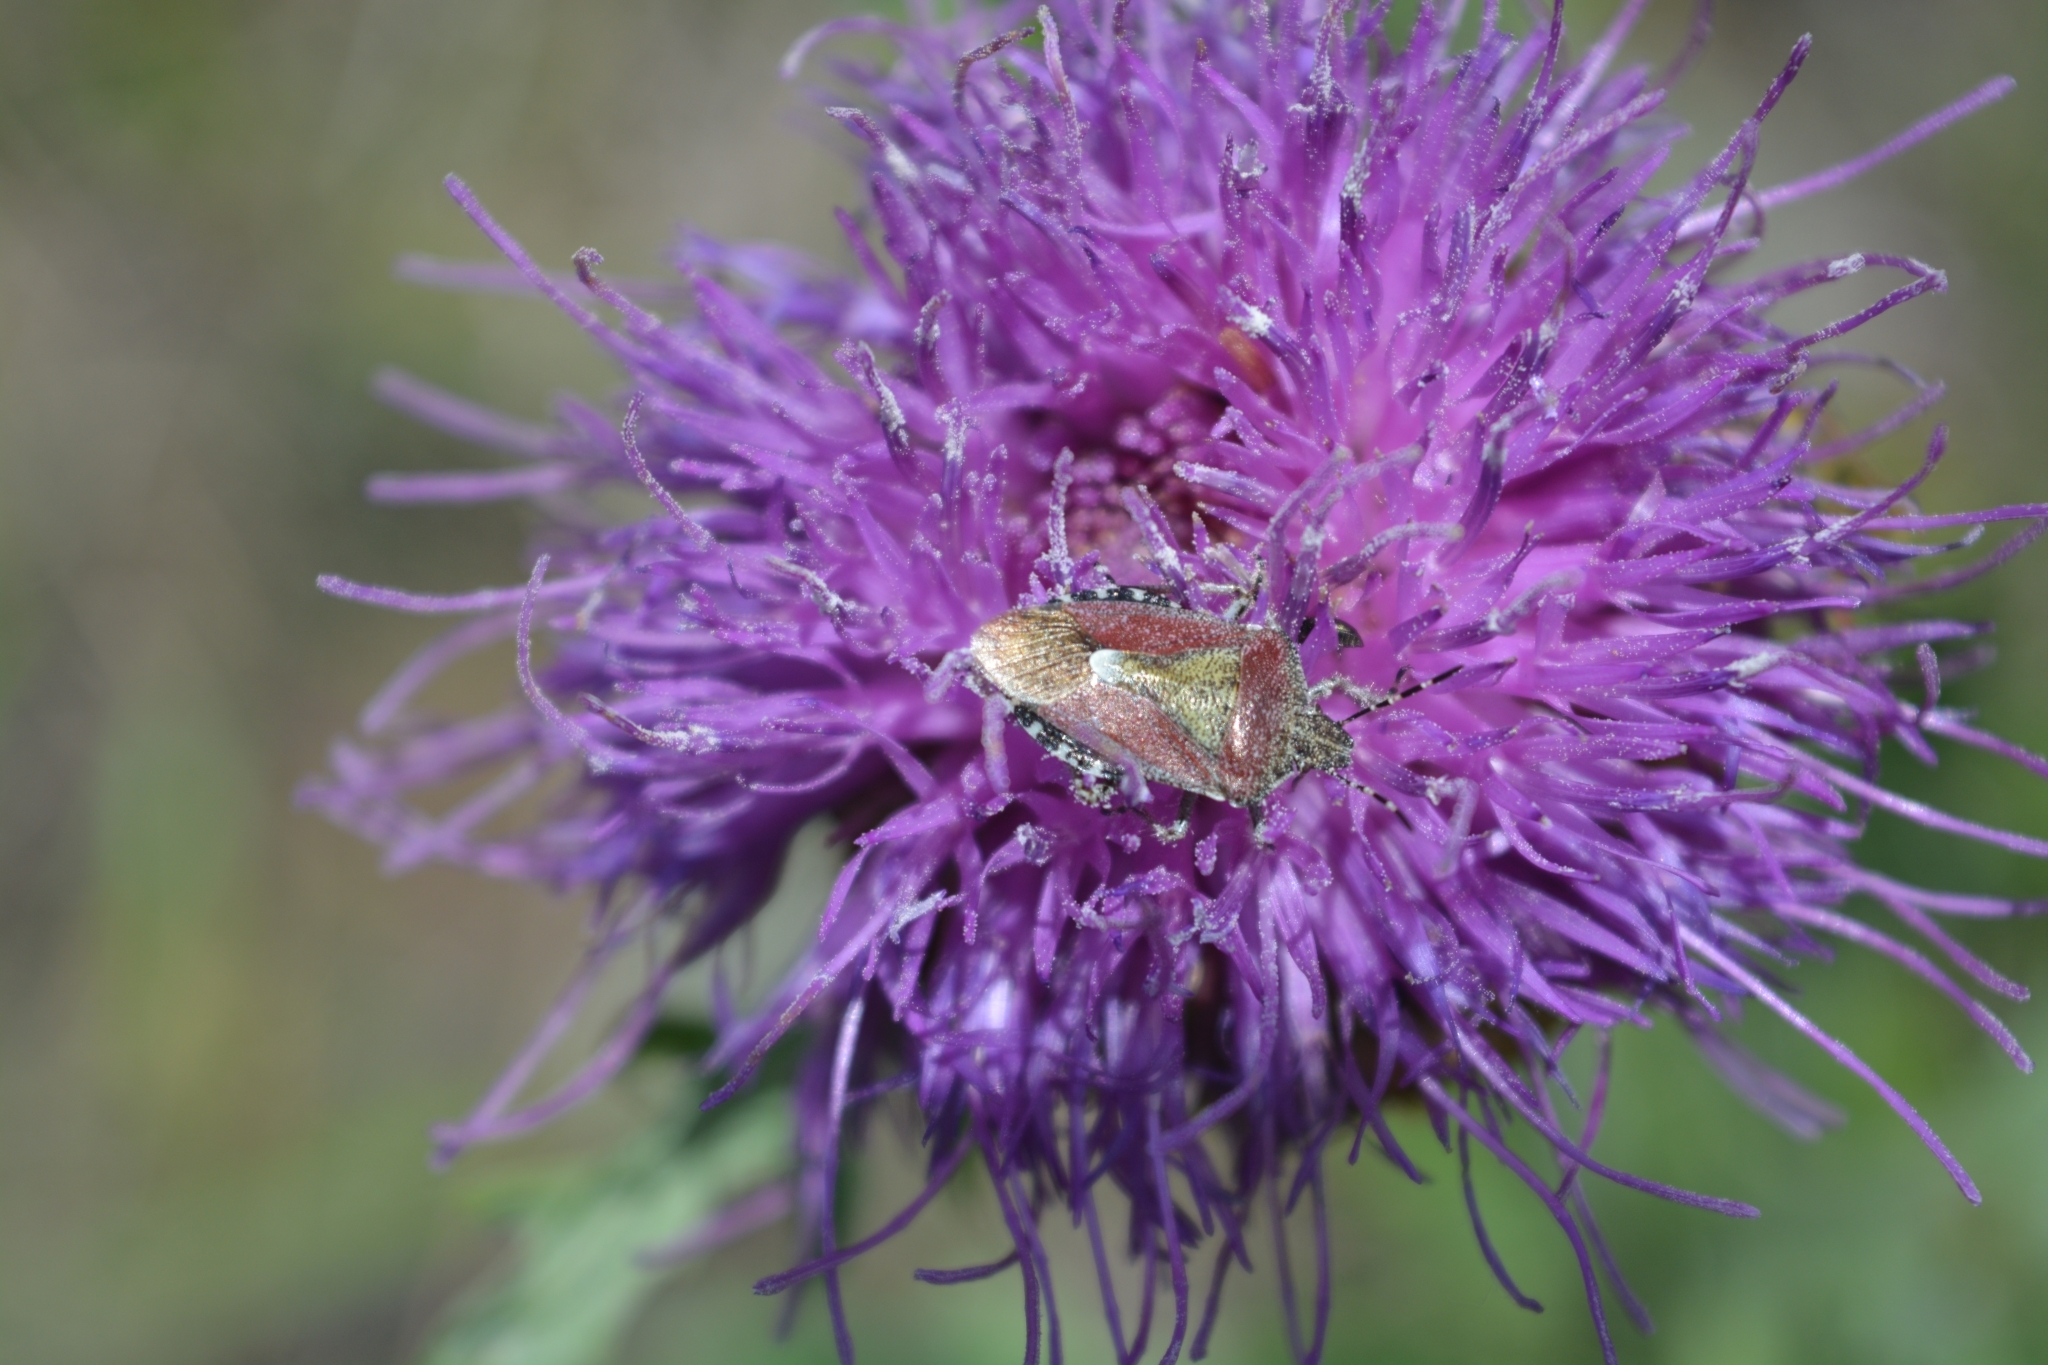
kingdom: Animalia
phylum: Arthropoda
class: Insecta
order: Hemiptera
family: Pentatomidae
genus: Dolycoris
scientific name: Dolycoris baccarum
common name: Sloe bug
